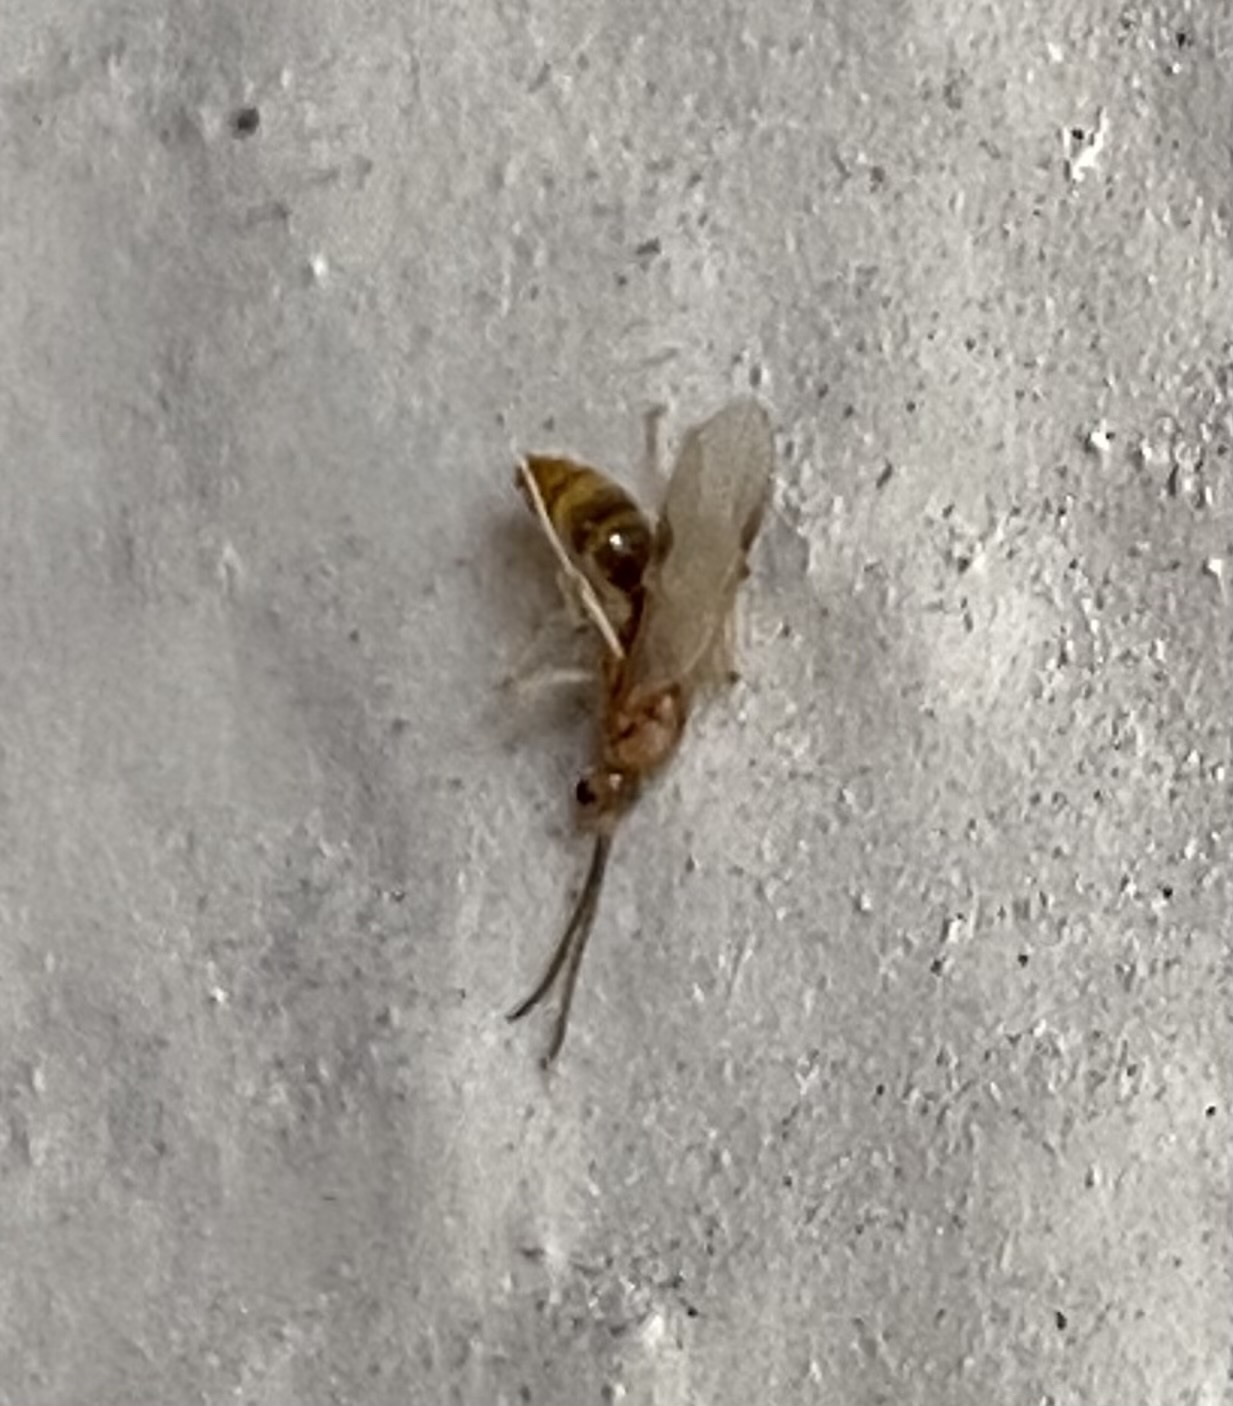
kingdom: Animalia
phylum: Arthropoda
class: Insecta
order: Hymenoptera
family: Formicidae
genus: Pachycondyla
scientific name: Pachycondyla chinensis
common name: Asian needle ant
